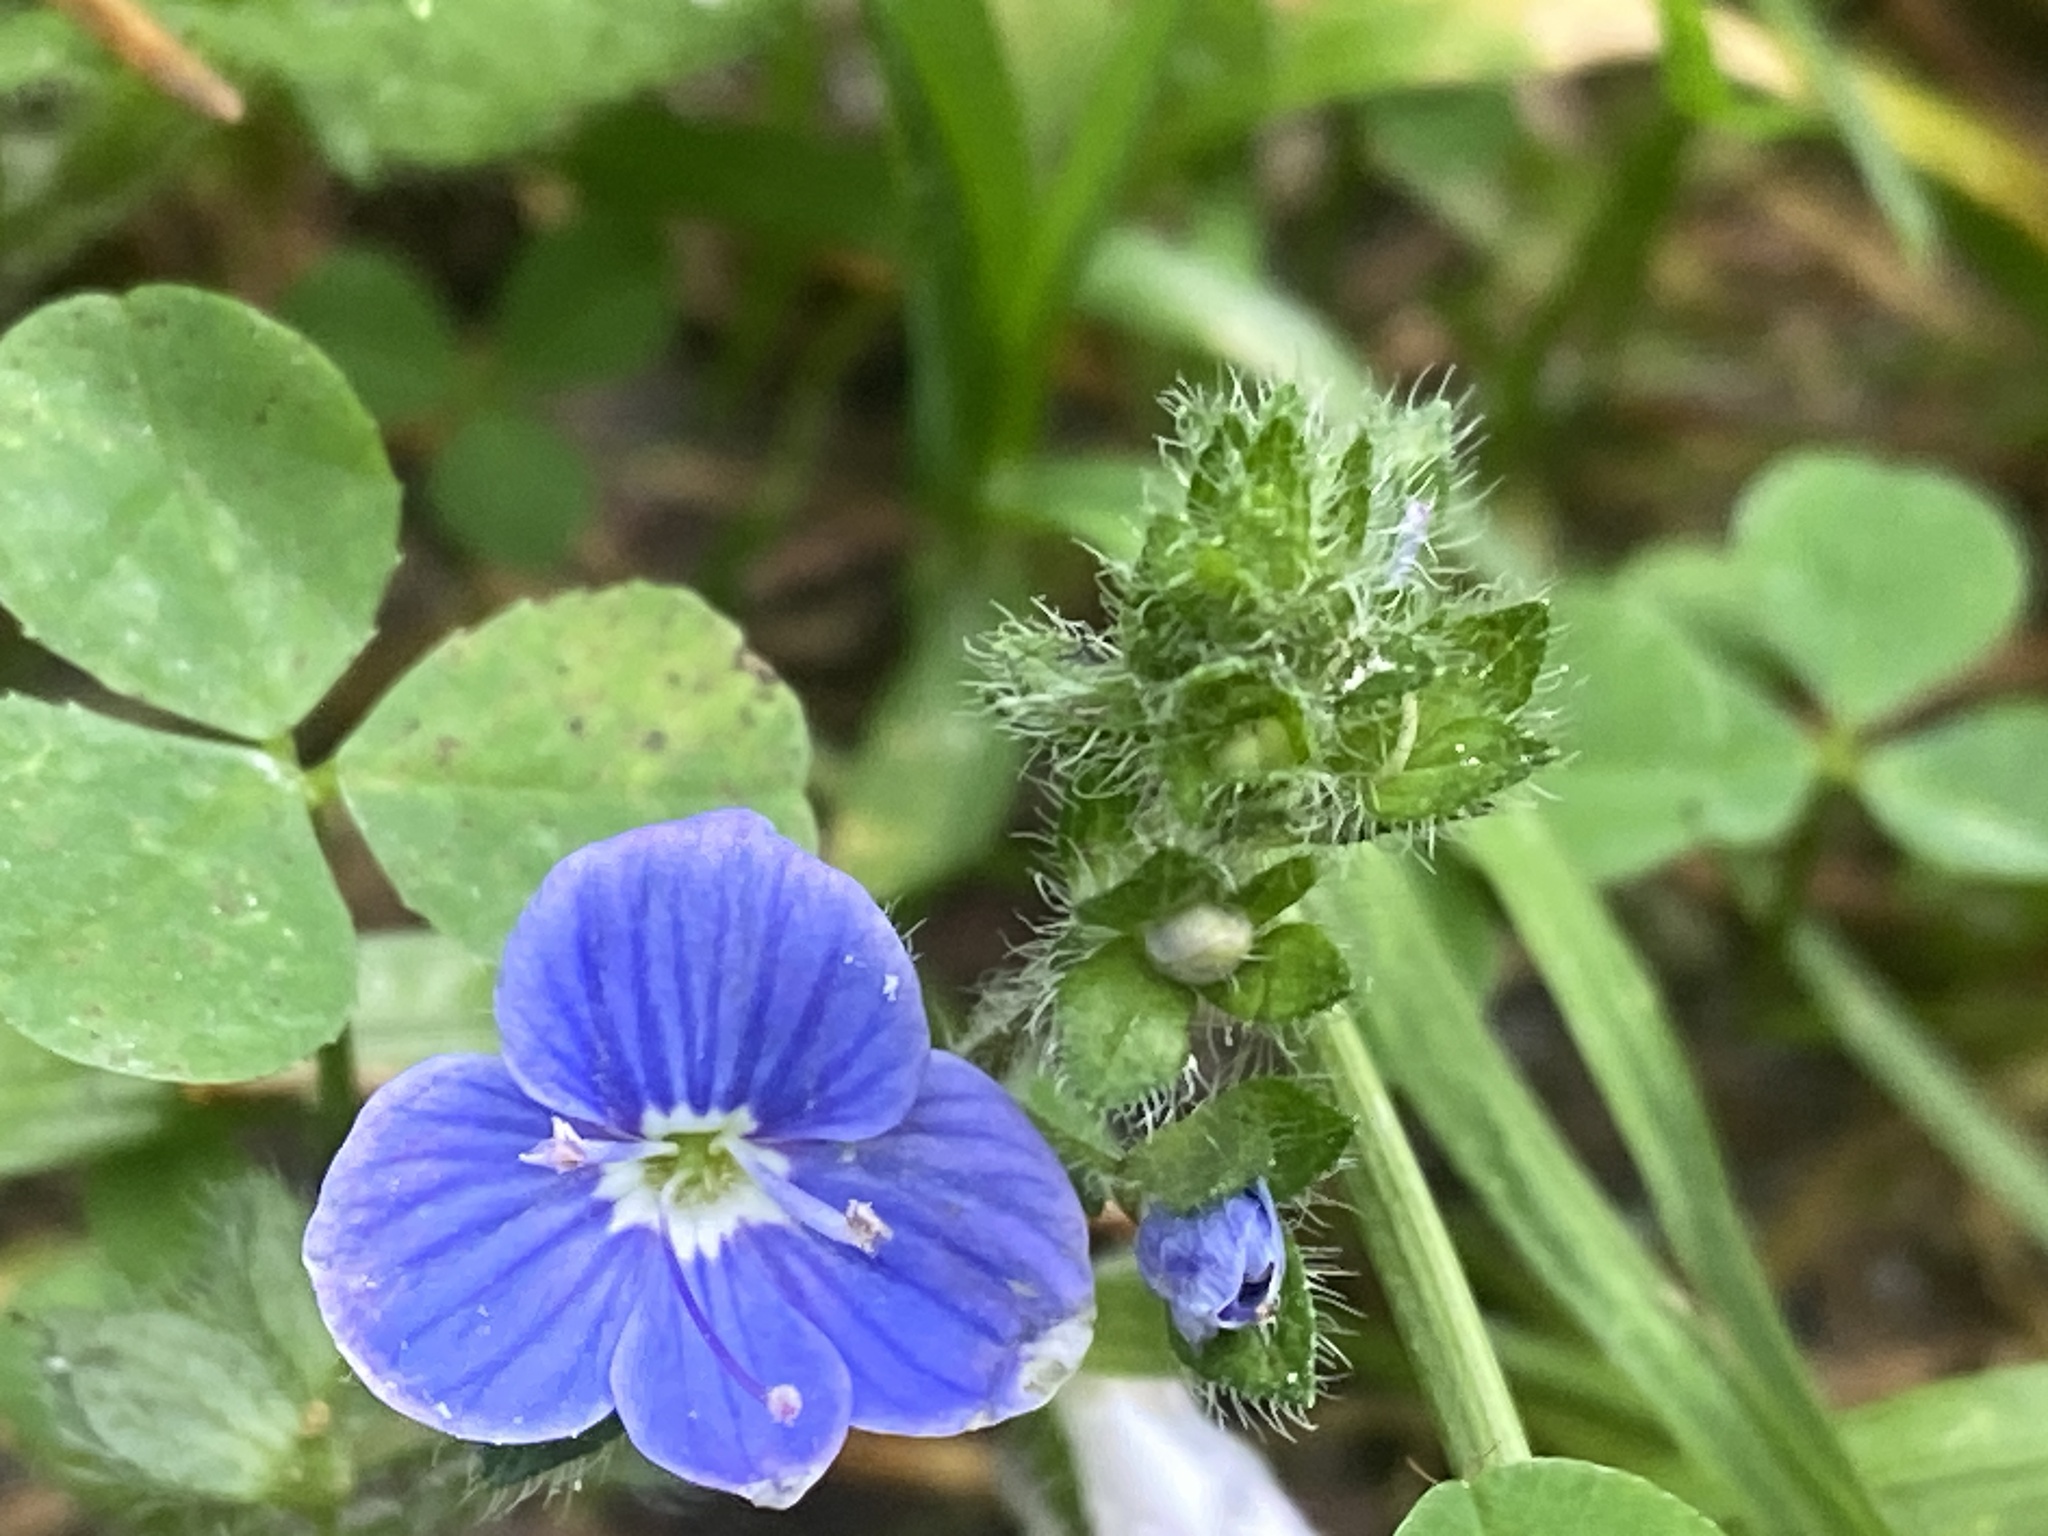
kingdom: Plantae
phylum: Tracheophyta
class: Magnoliopsida
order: Lamiales
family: Plantaginaceae
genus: Veronica
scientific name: Veronica chamaedrys
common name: Germander speedwell
